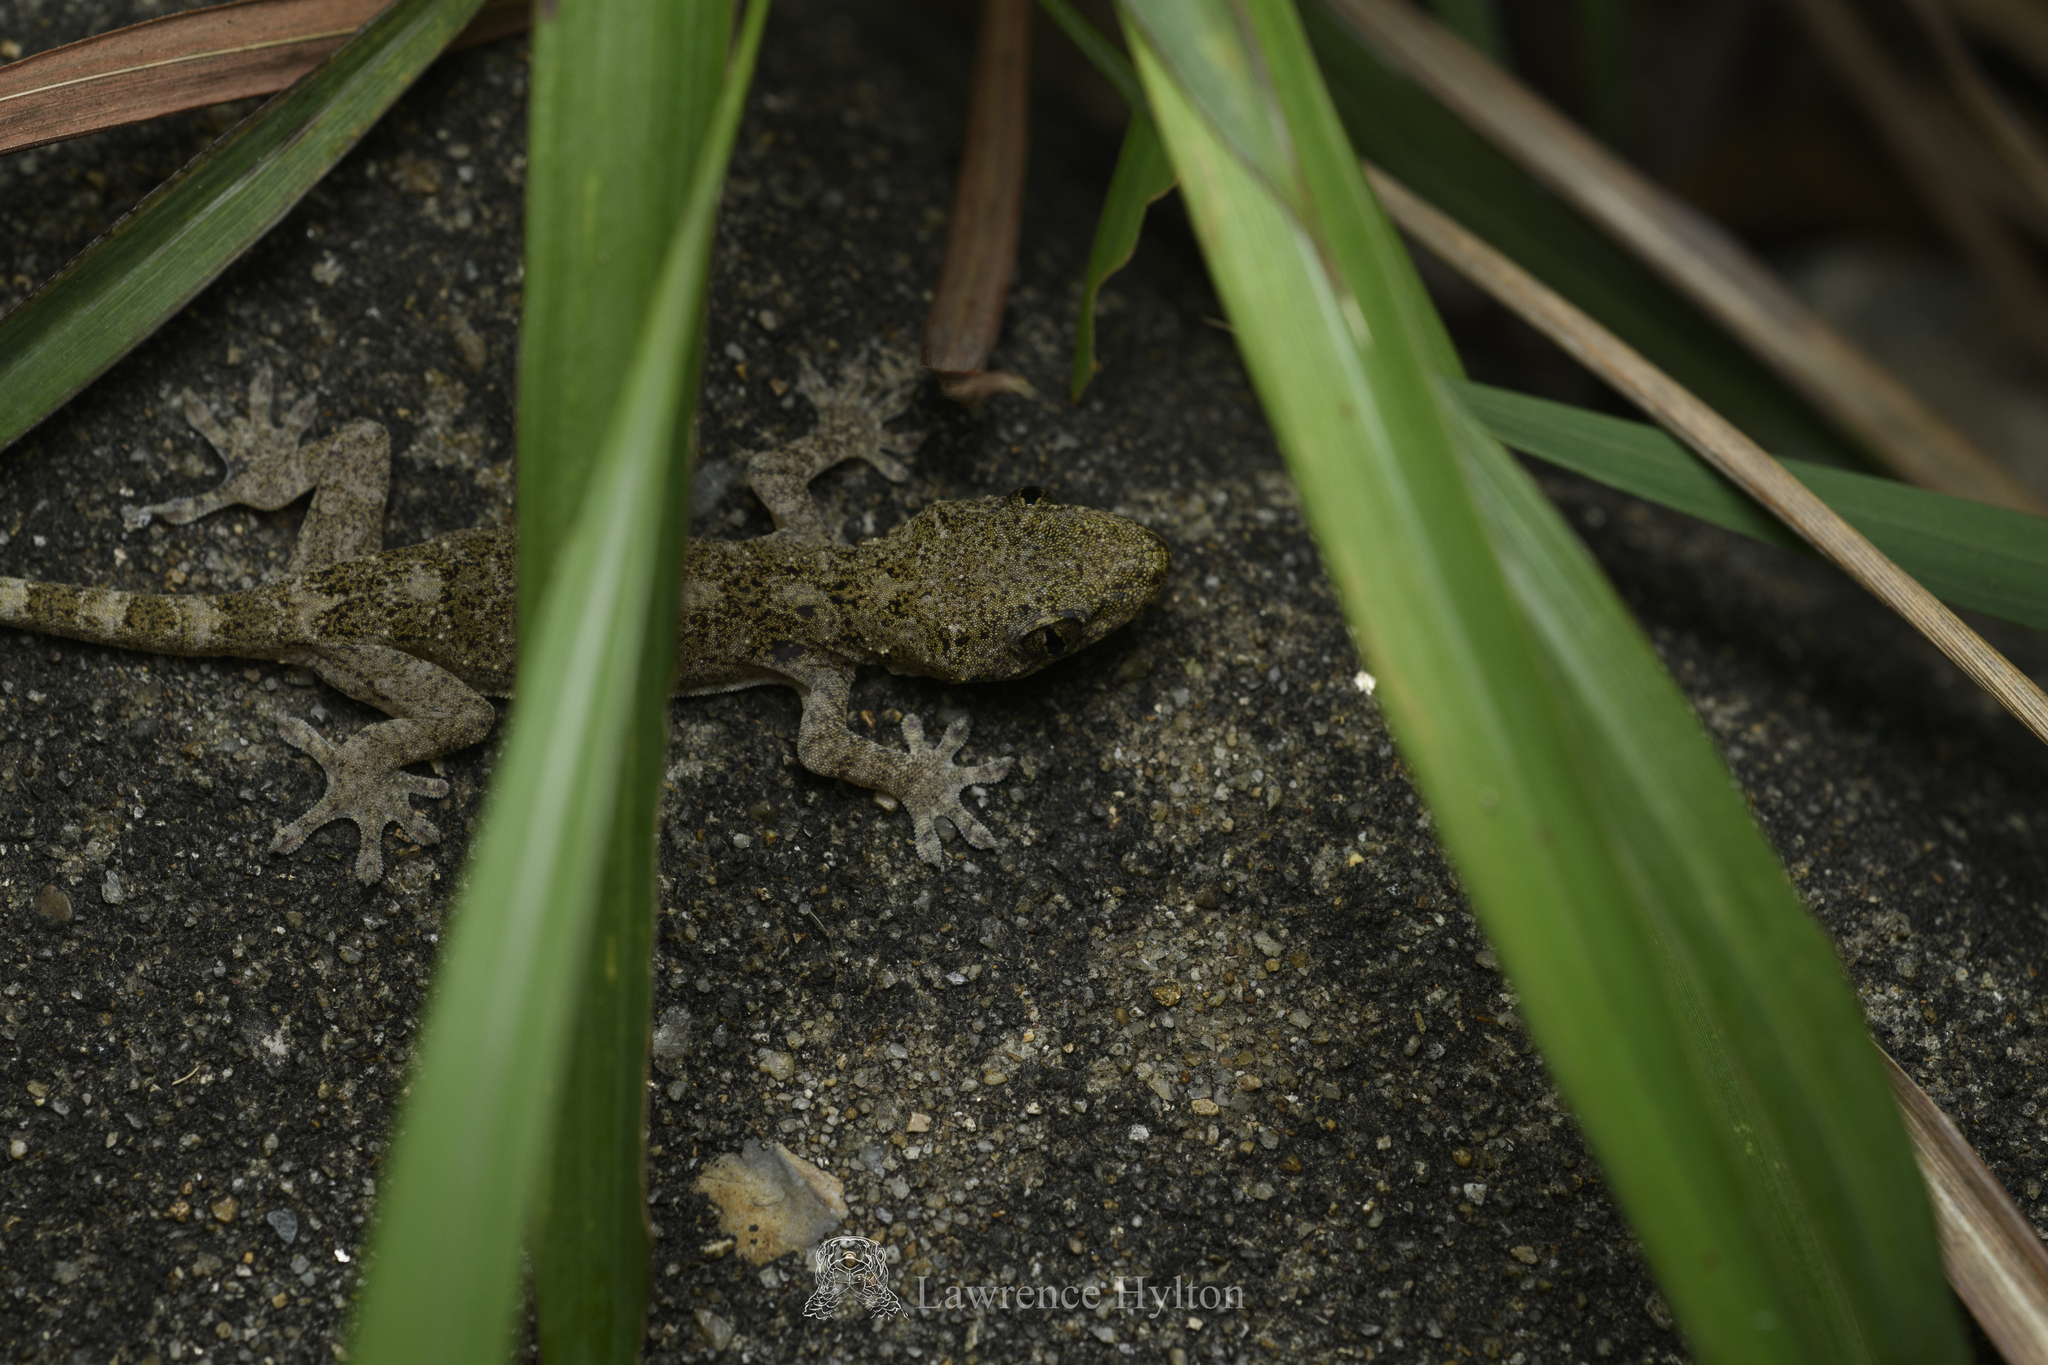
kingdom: Animalia
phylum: Chordata
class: Squamata
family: Gekkonidae
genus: Gekko
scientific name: Gekko chinensis
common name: Gray's chinese gecko
